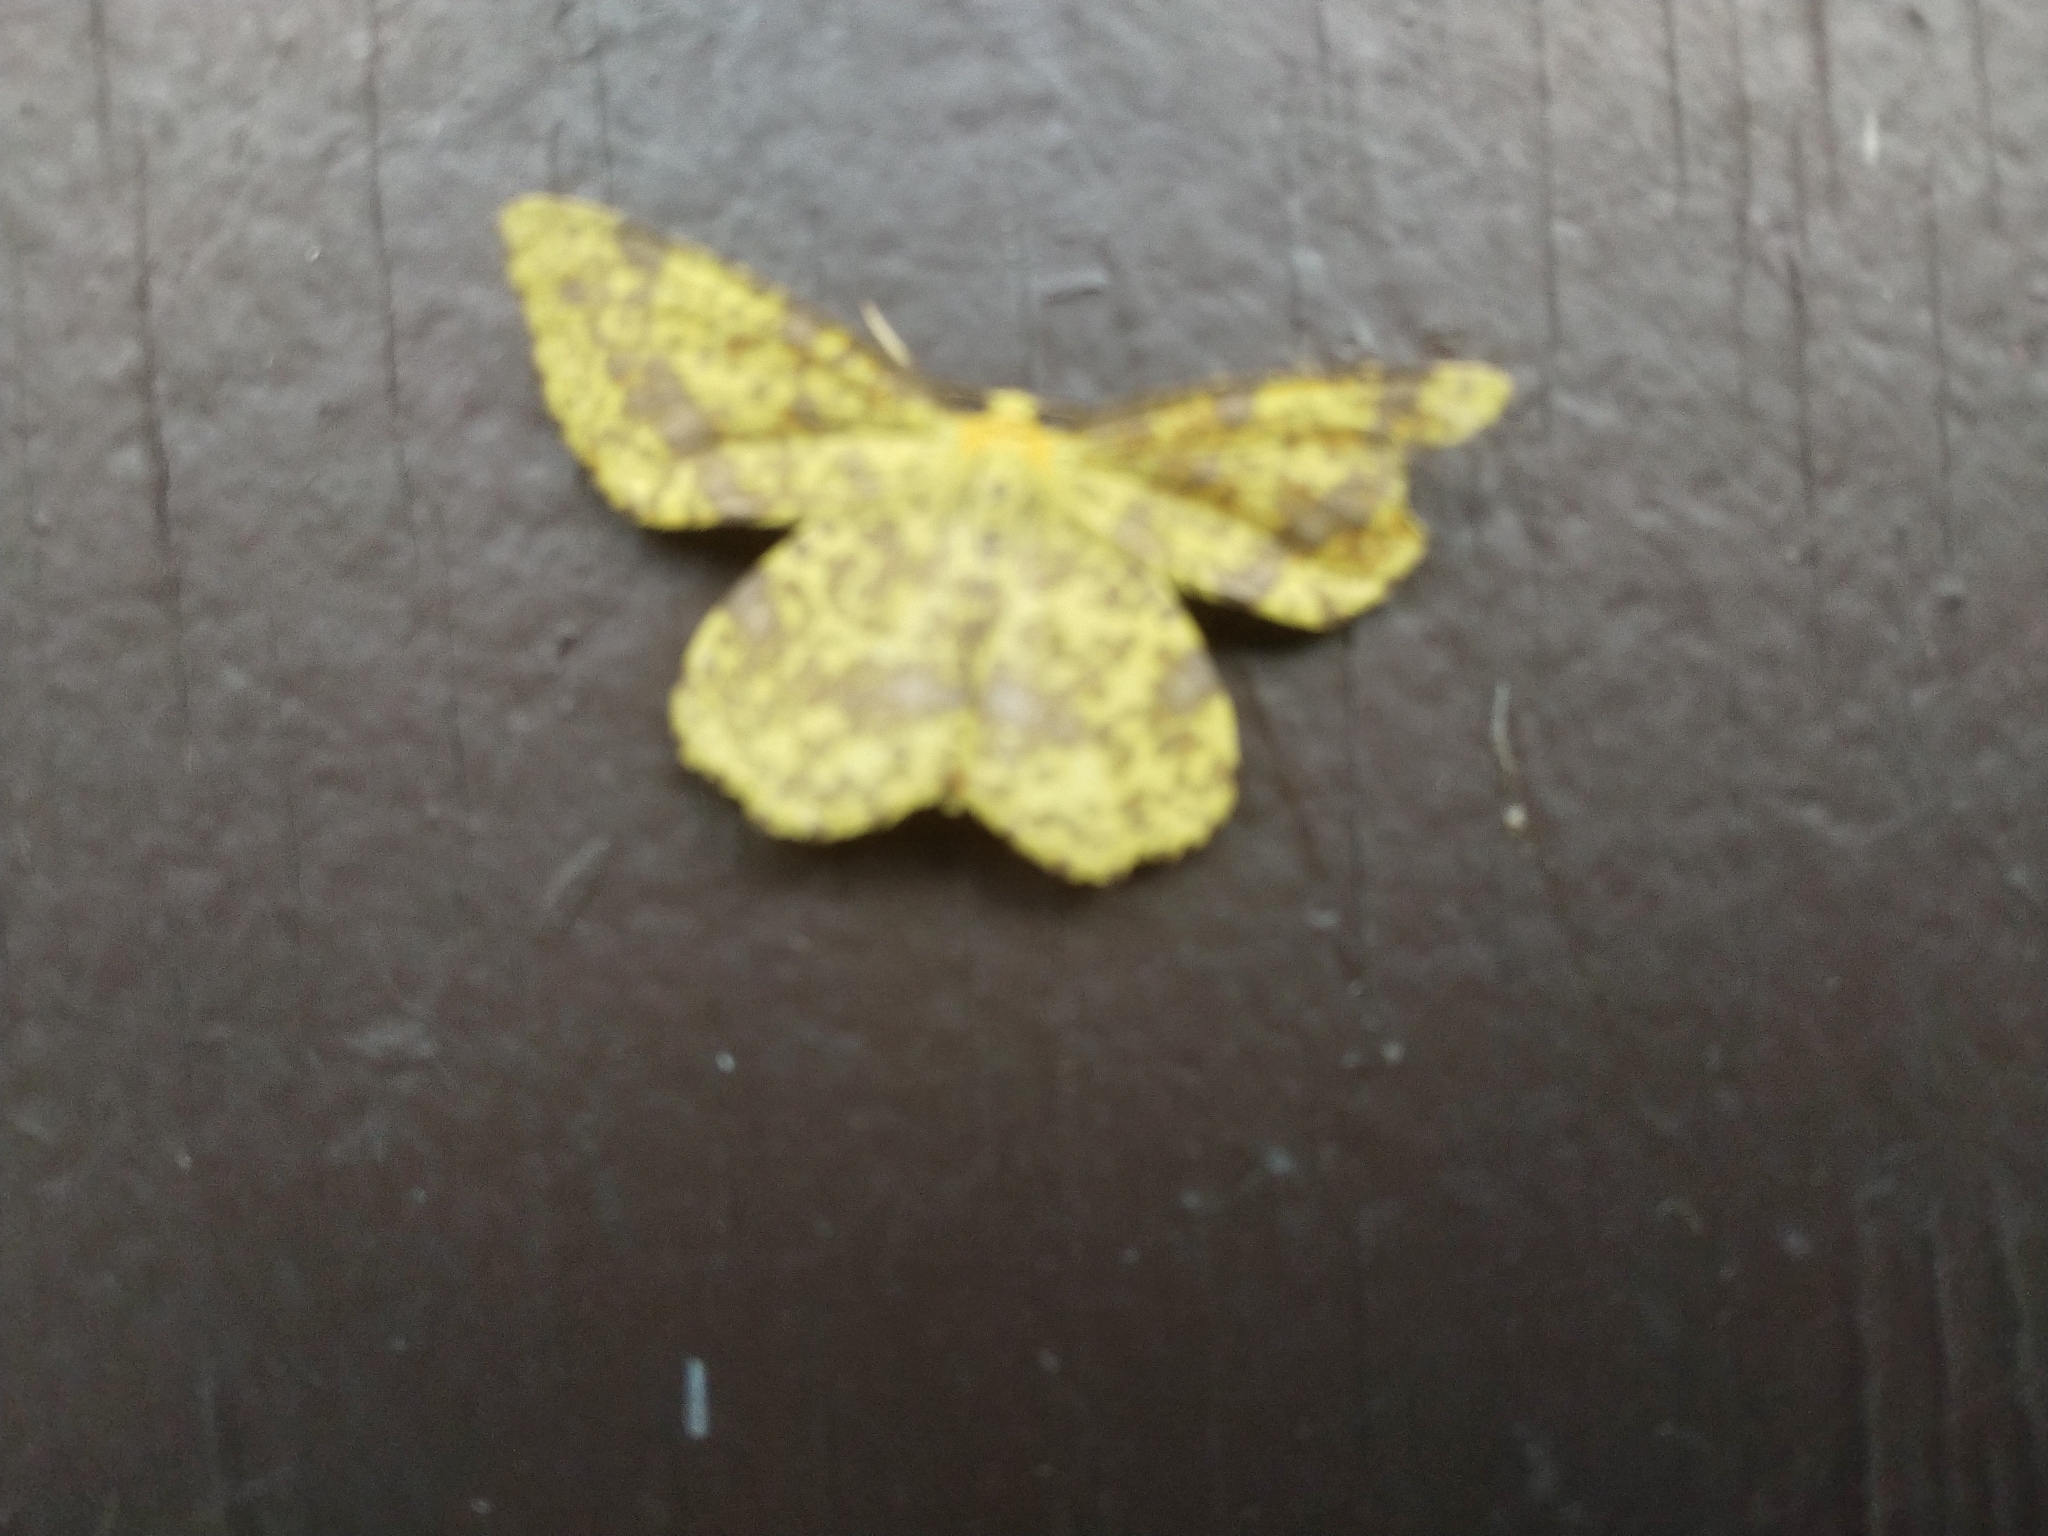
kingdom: Animalia
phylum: Arthropoda
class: Insecta
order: Lepidoptera
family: Geometridae
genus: Xanthotype
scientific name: Xanthotype
